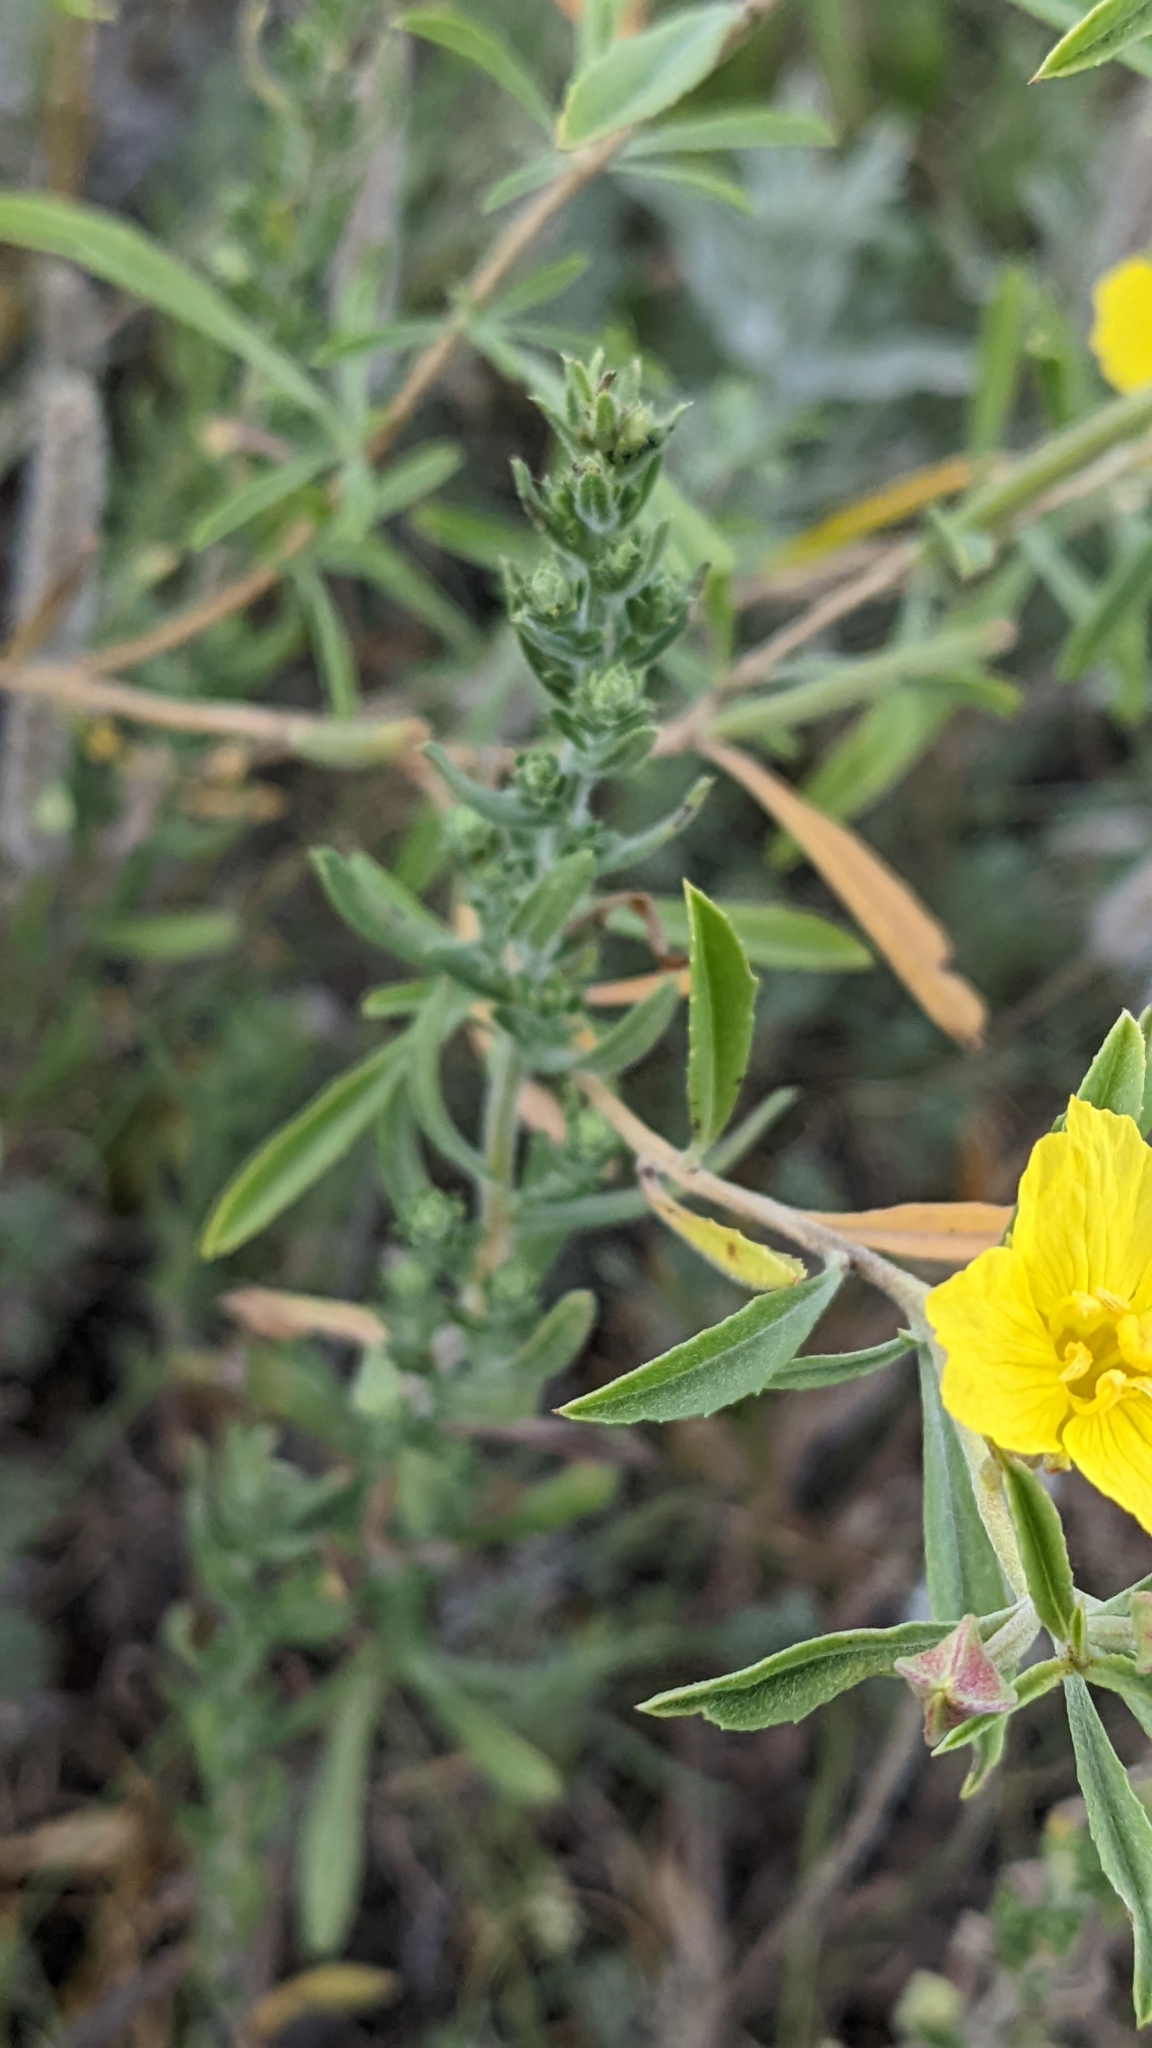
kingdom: Plantae
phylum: Tracheophyta
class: Magnoliopsida
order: Myrtales
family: Onagraceae
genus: Oenothera
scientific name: Oenothera serrulata
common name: Half-shrub calylophus
